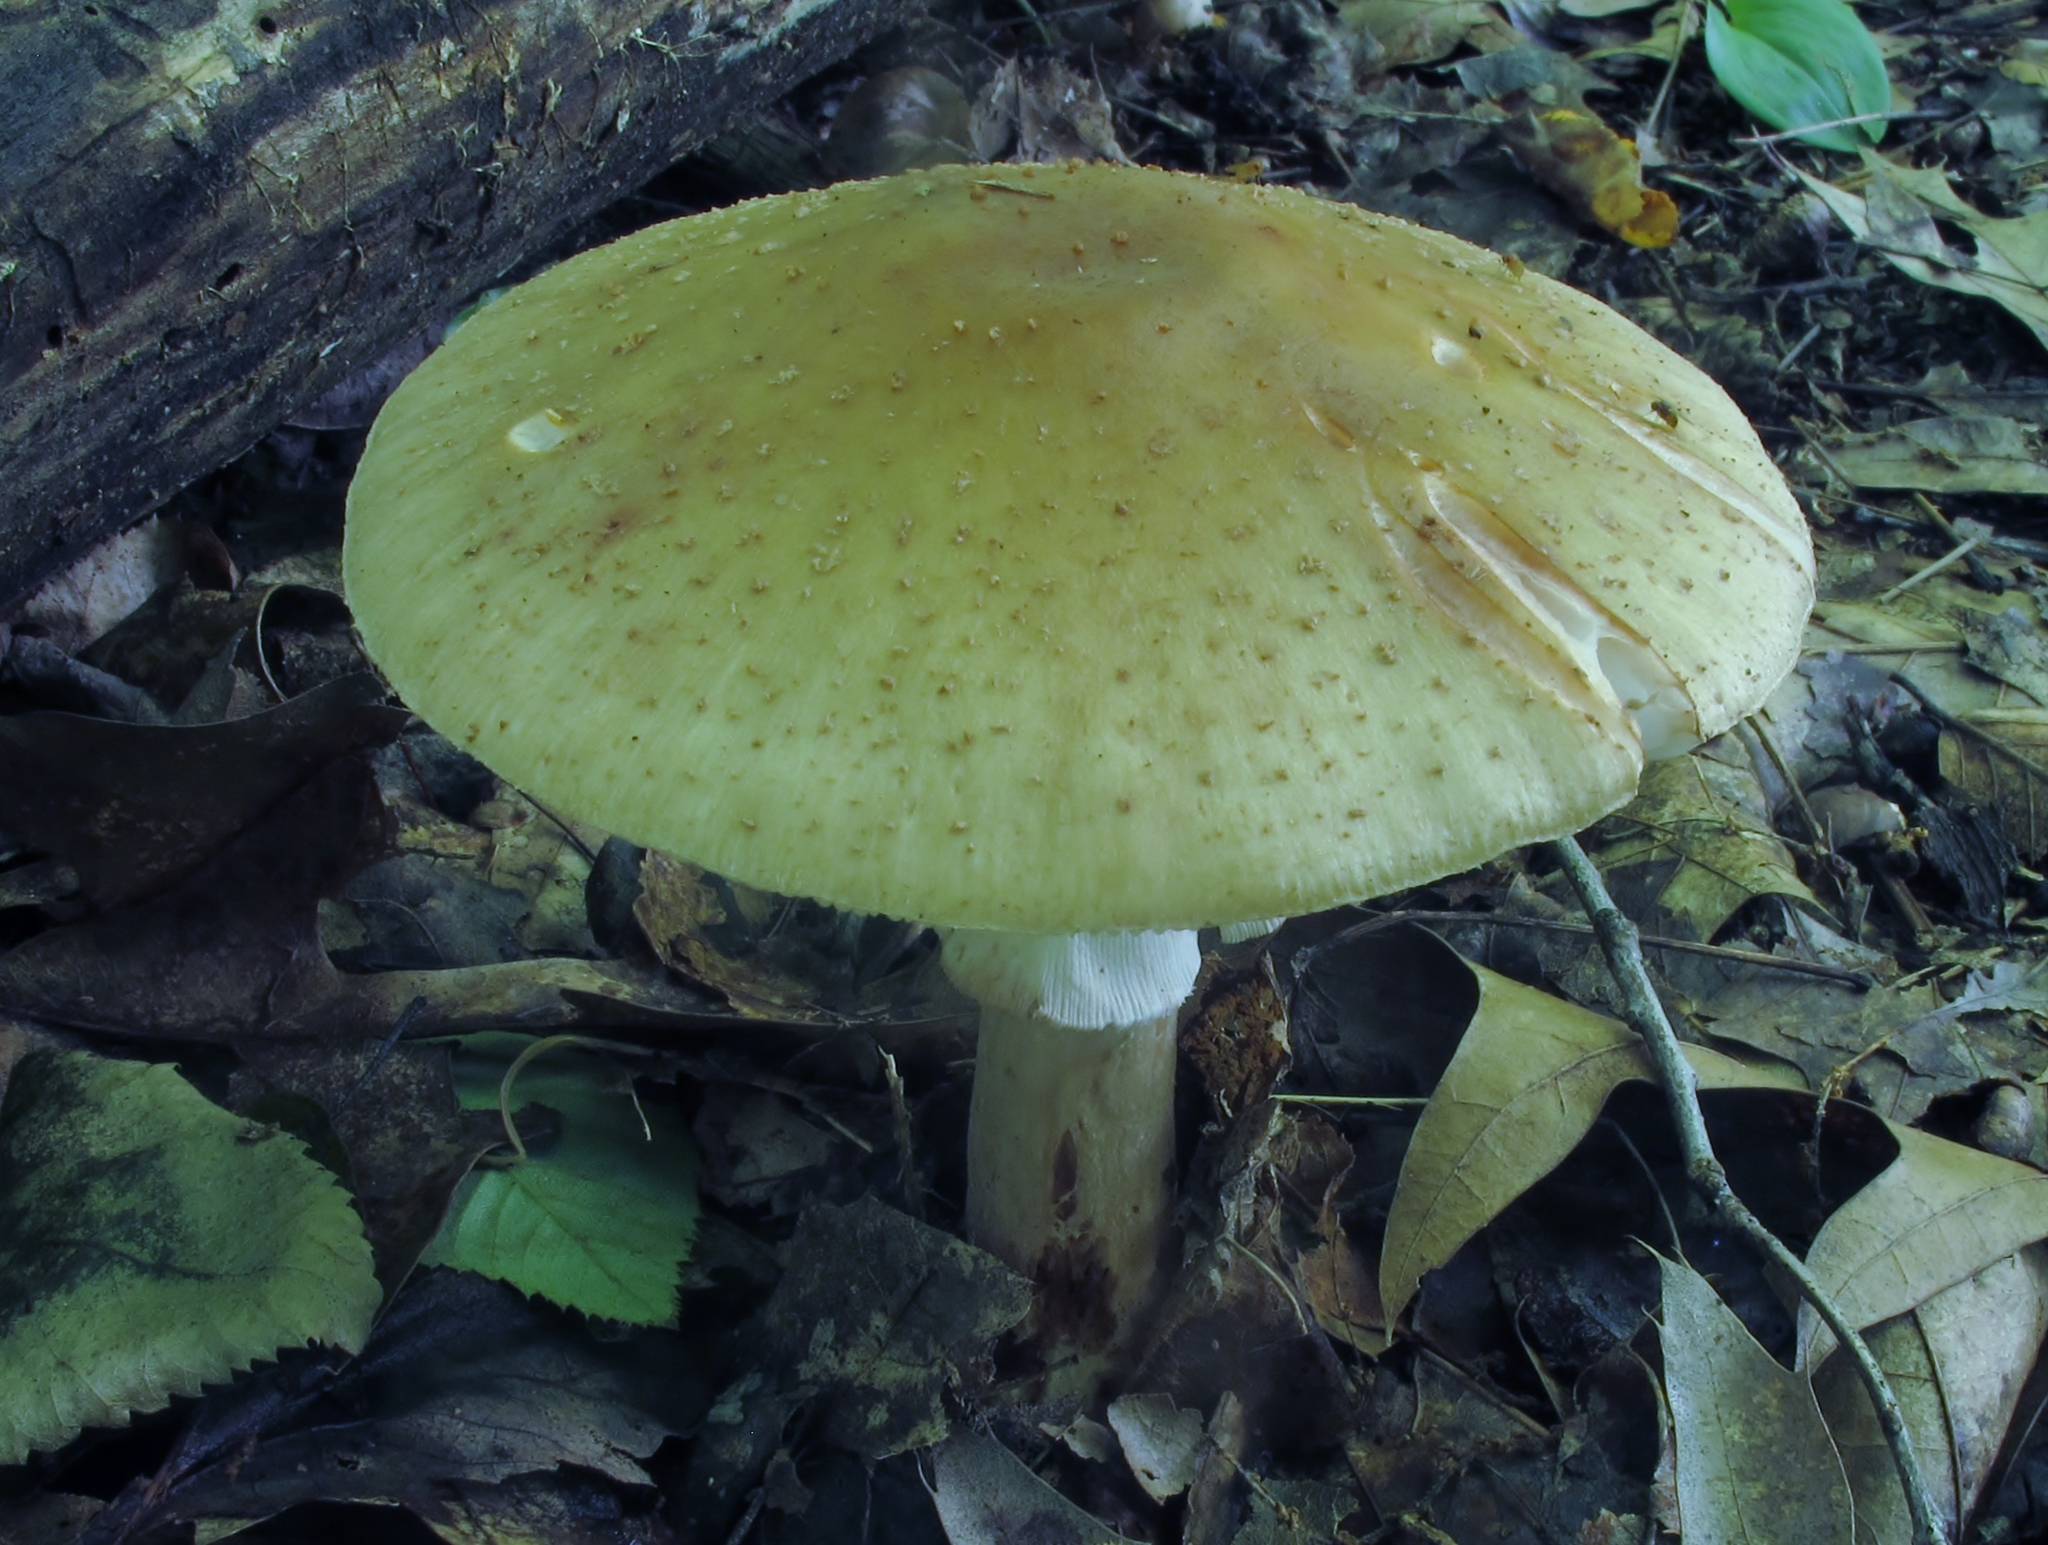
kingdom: Fungi
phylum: Basidiomycota
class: Agaricomycetes
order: Agaricales
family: Amanitaceae
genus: Amanita
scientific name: Amanita rubescens
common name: Blusher
